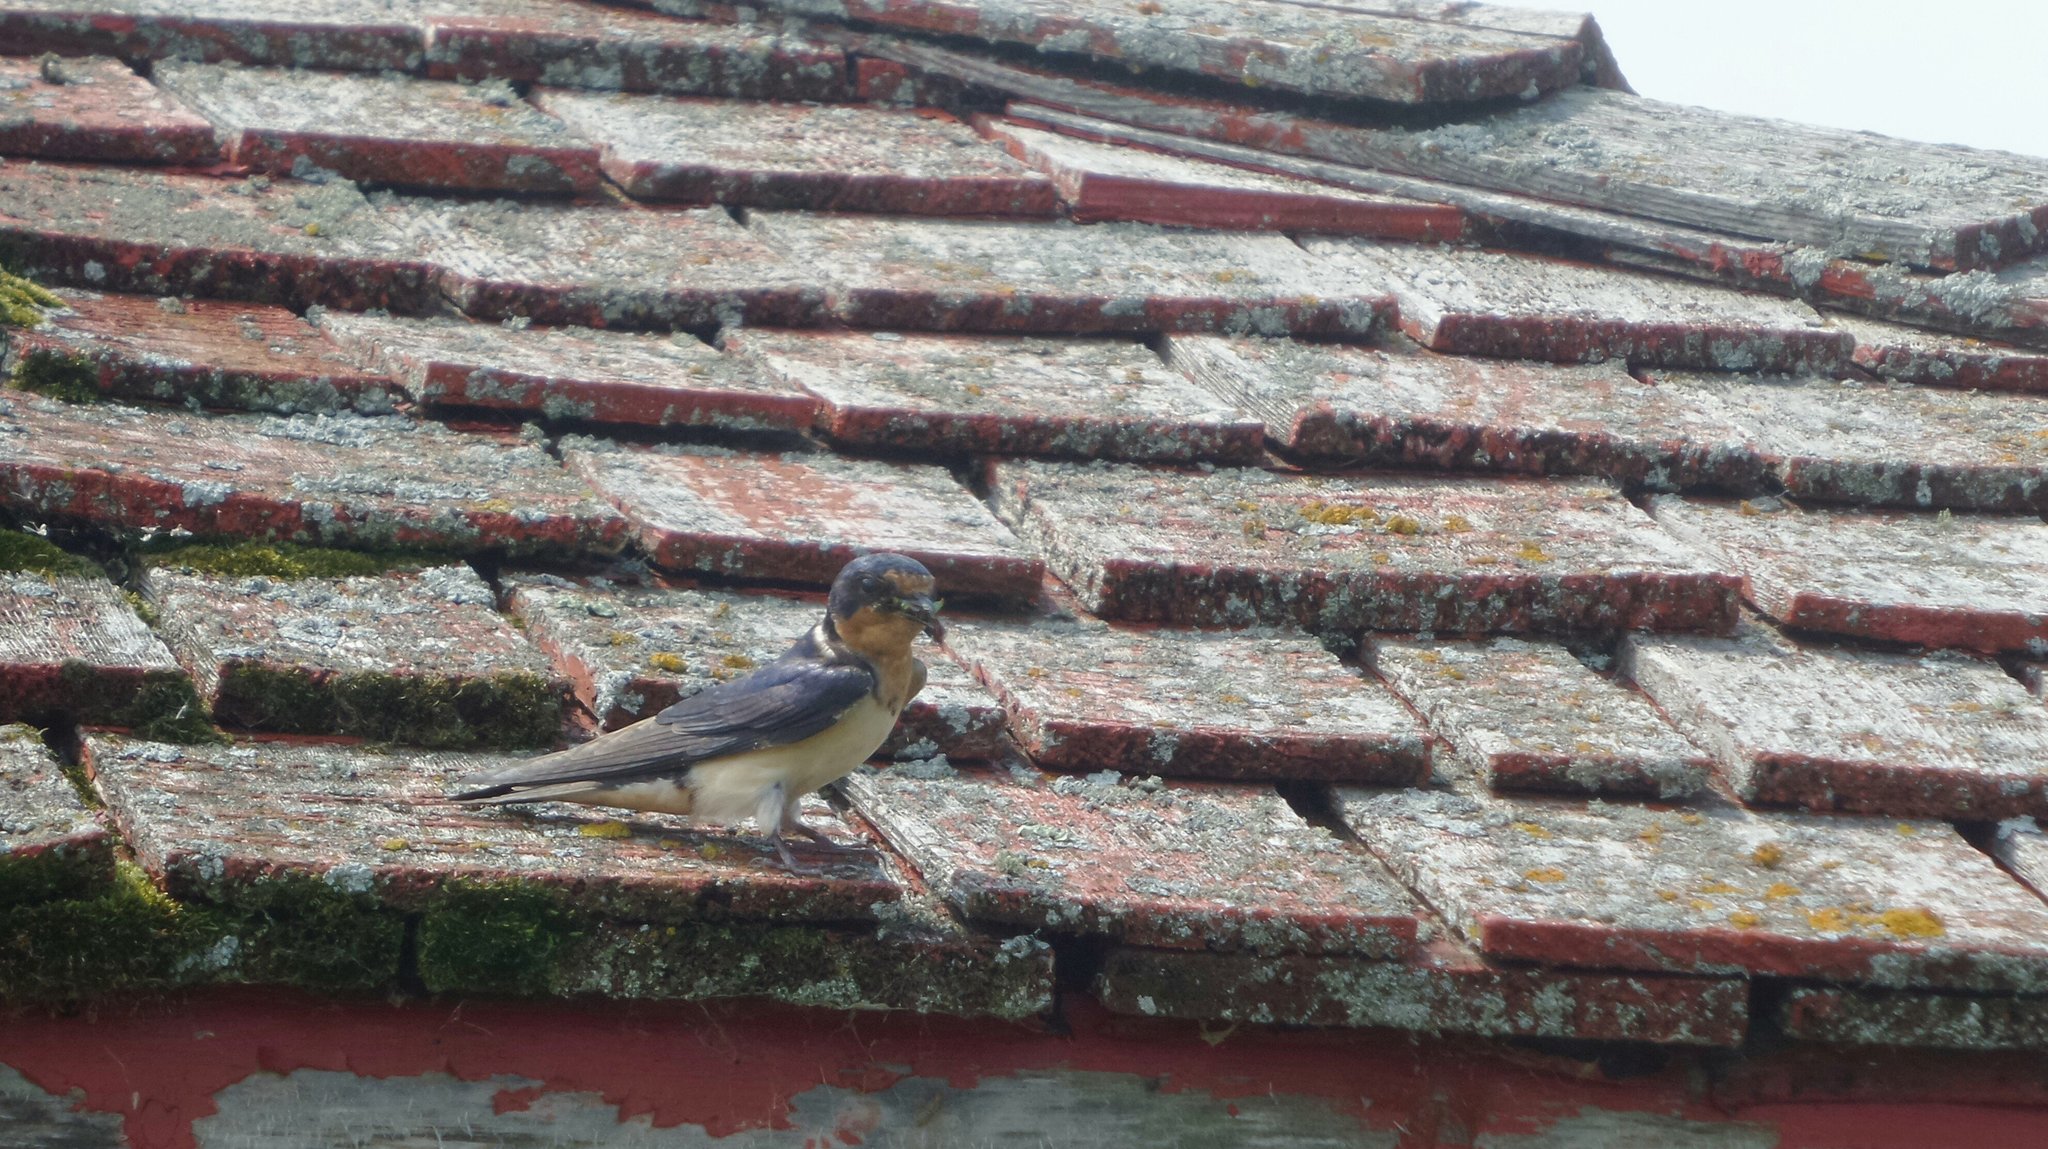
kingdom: Animalia
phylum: Chordata
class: Aves
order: Passeriformes
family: Hirundinidae
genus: Hirundo
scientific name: Hirundo rustica
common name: Barn swallow
